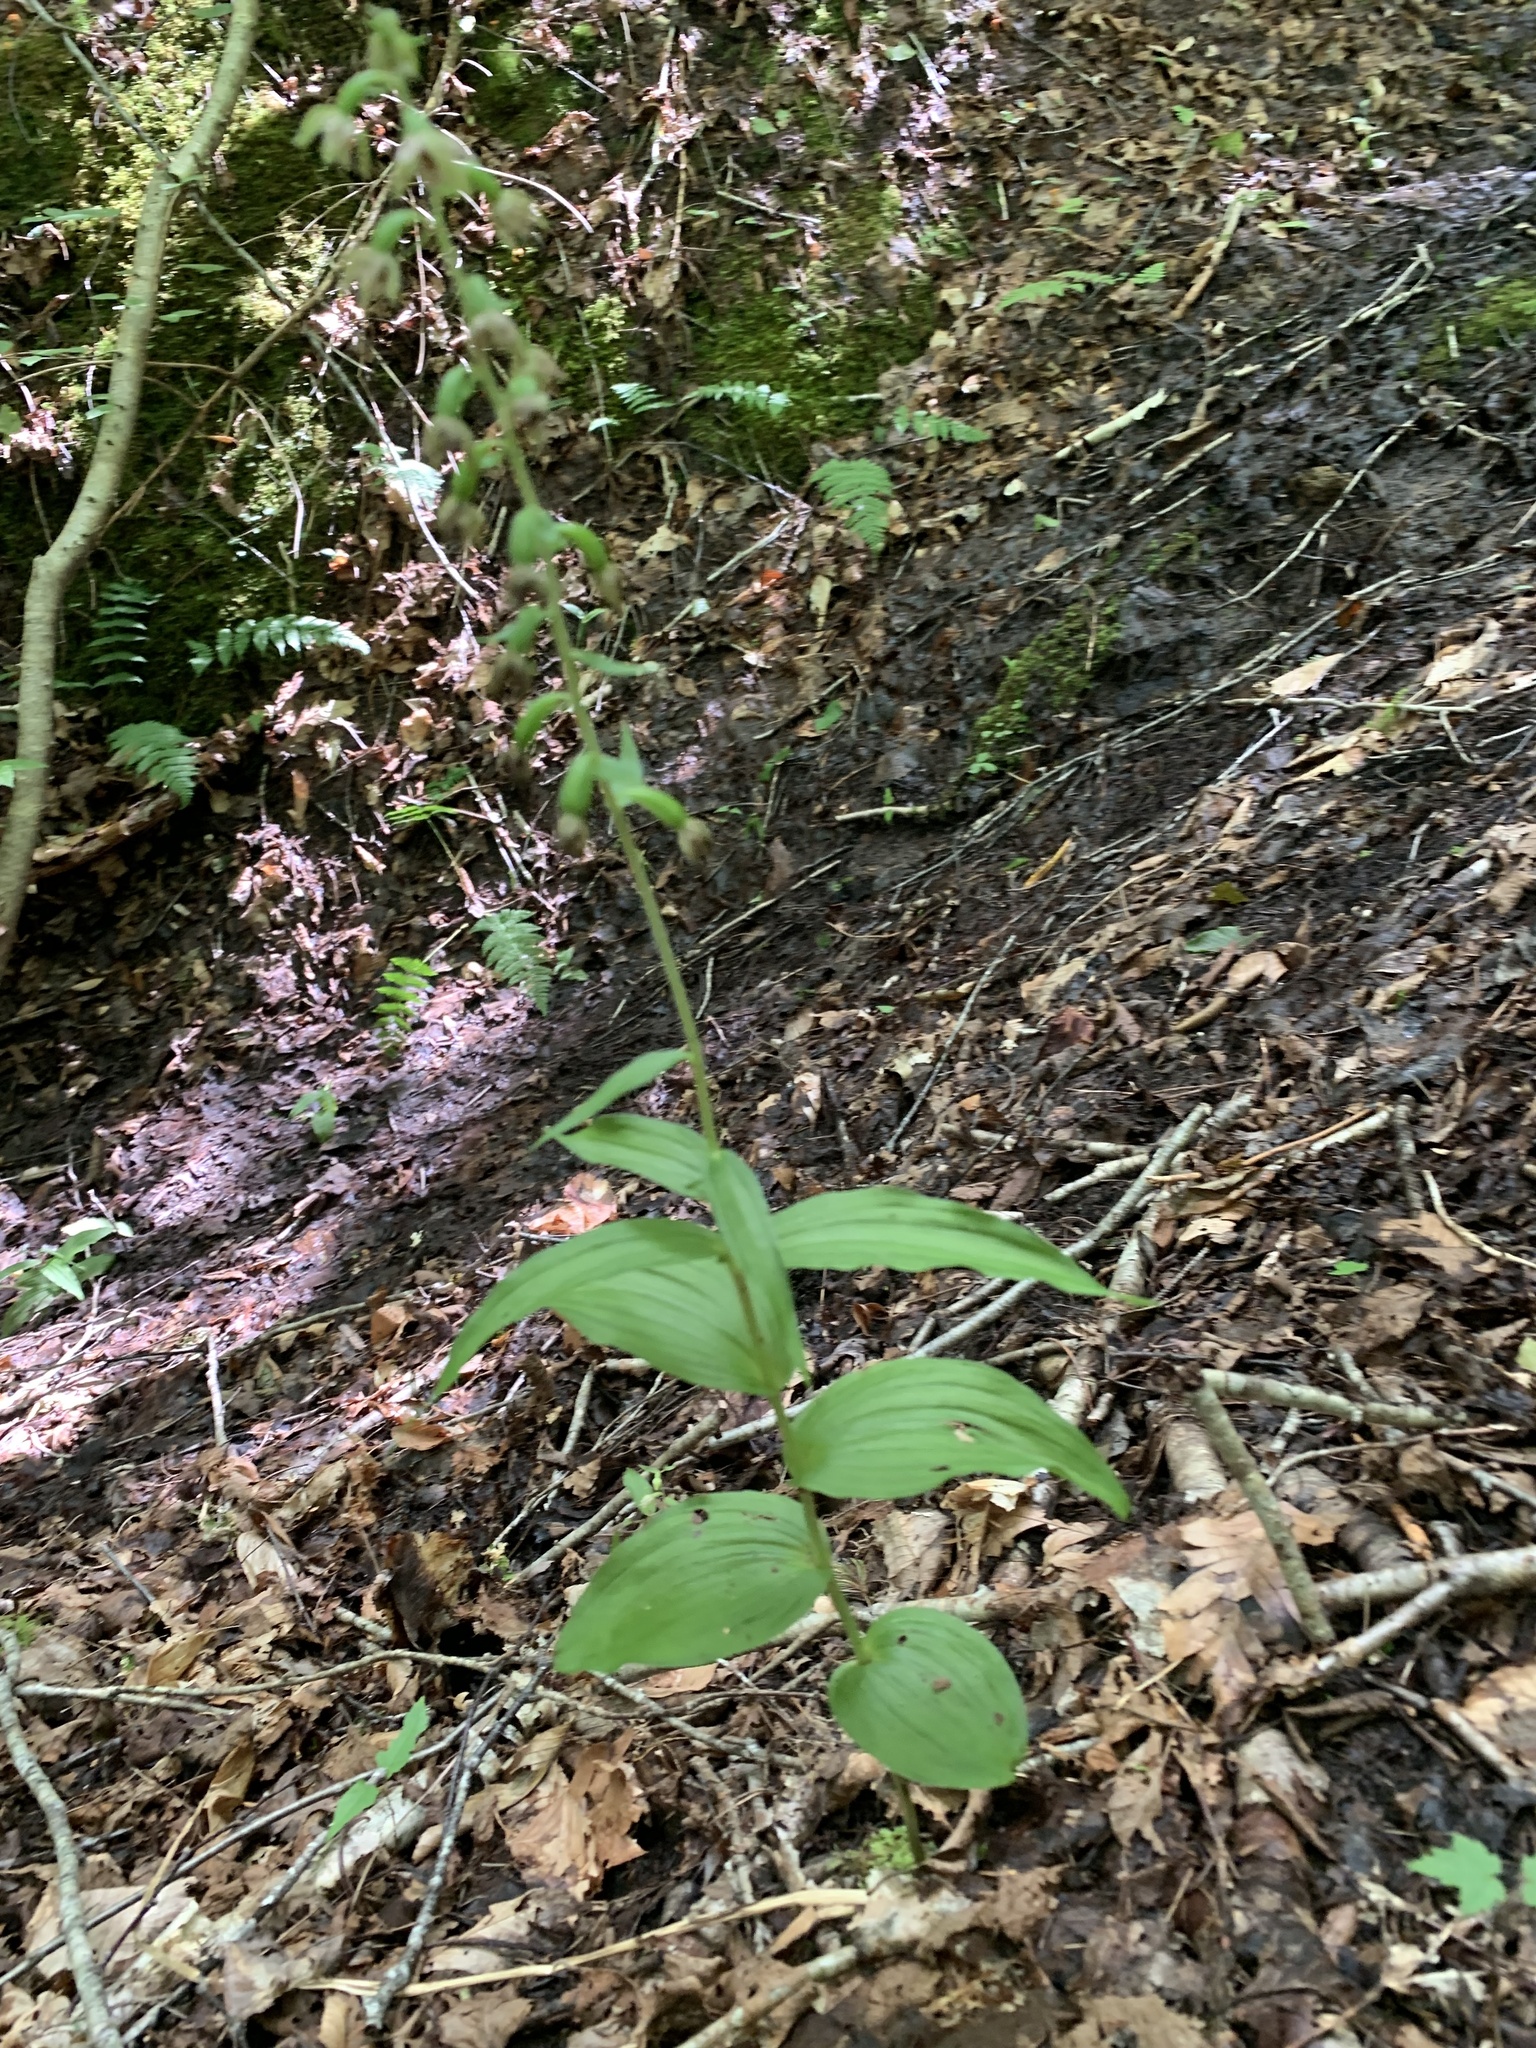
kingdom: Plantae
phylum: Tracheophyta
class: Liliopsida
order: Asparagales
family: Orchidaceae
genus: Epipactis
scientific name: Epipactis helleborine
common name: Broad-leaved helleborine
